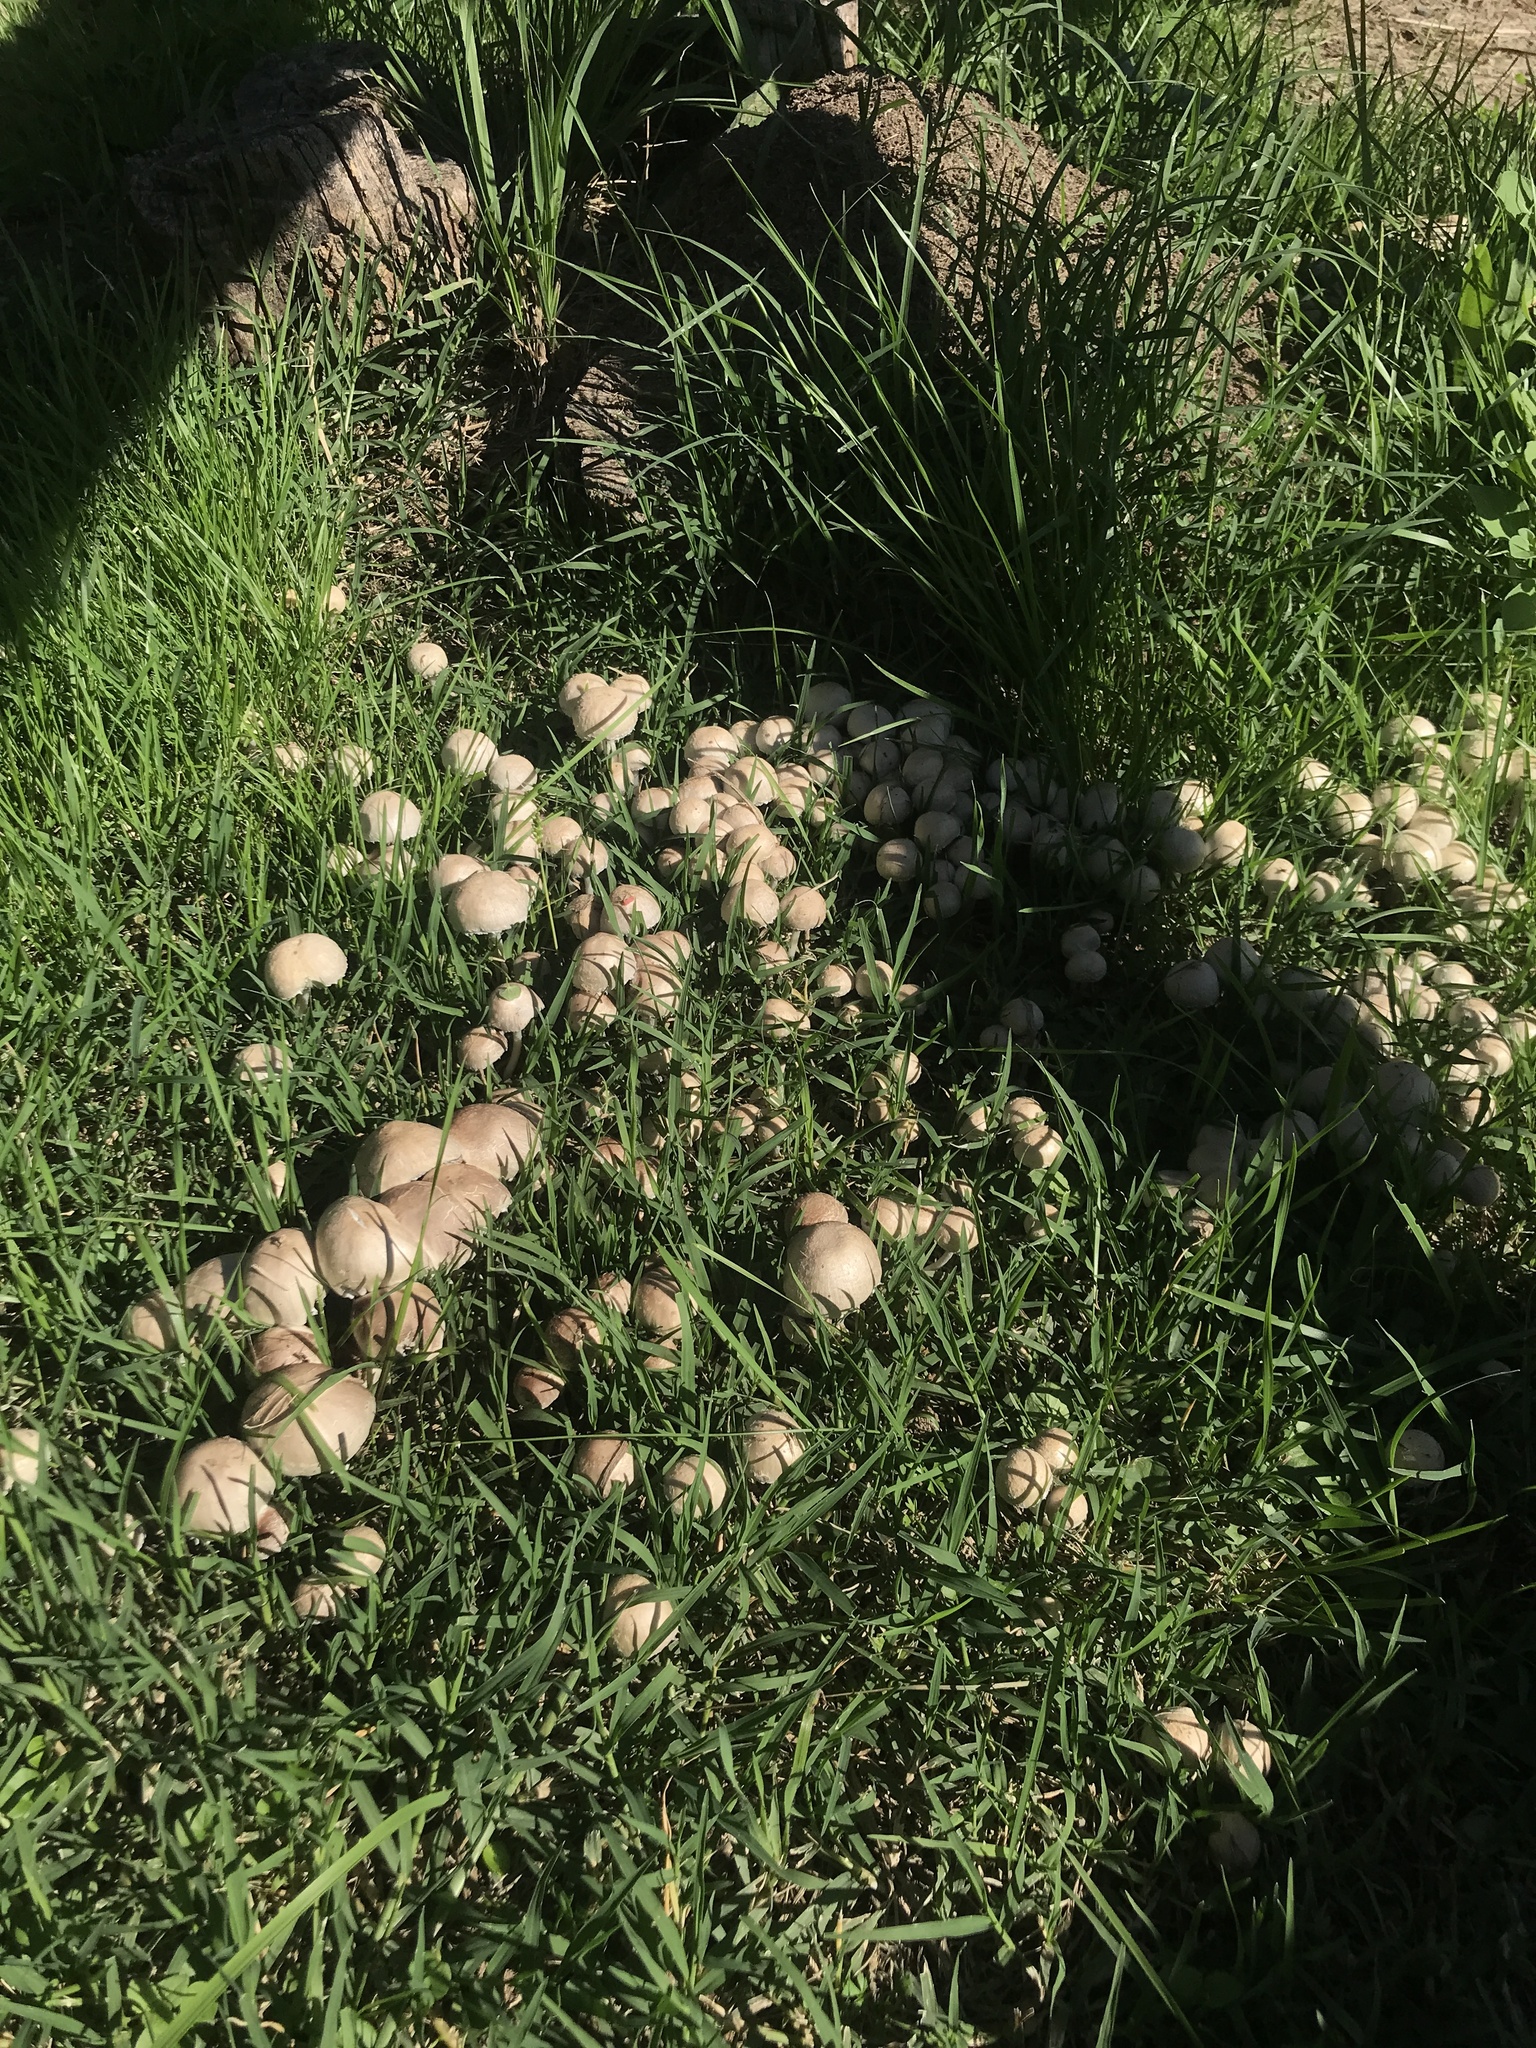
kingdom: Fungi
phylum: Basidiomycota
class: Agaricomycetes
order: Agaricales
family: Psathyrellaceae
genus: Candolleomyces
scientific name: Candolleomyces candolleanus
